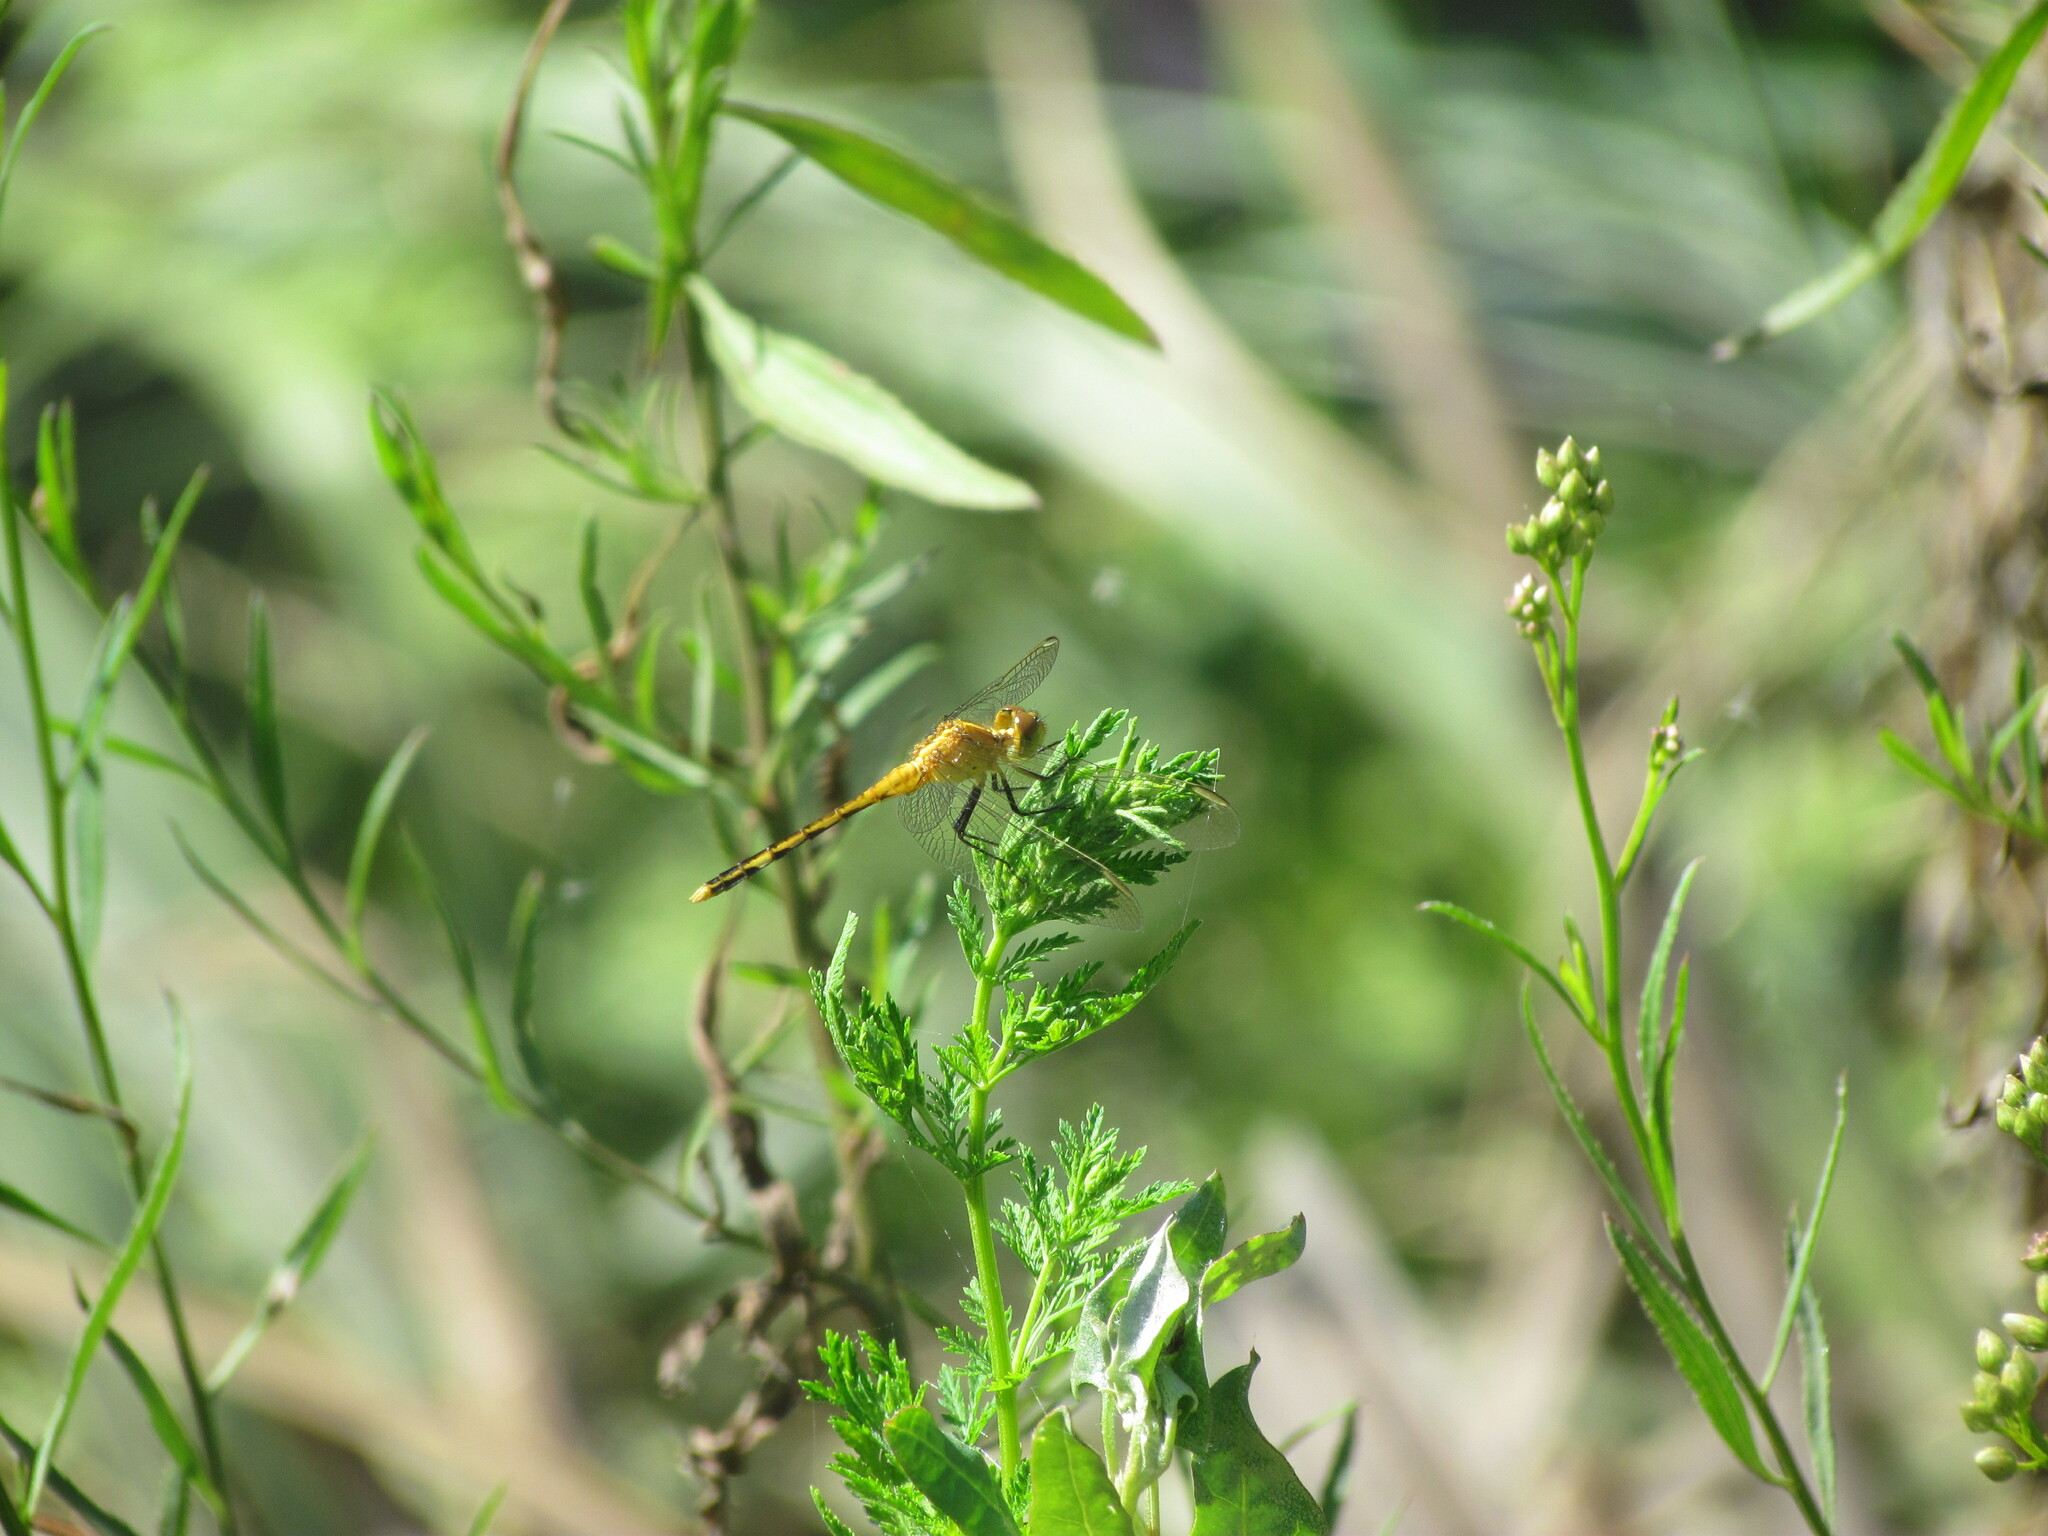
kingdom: Animalia
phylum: Arthropoda
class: Insecta
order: Odonata
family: Libellulidae
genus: Erythrodiplax
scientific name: Erythrodiplax nigricans
